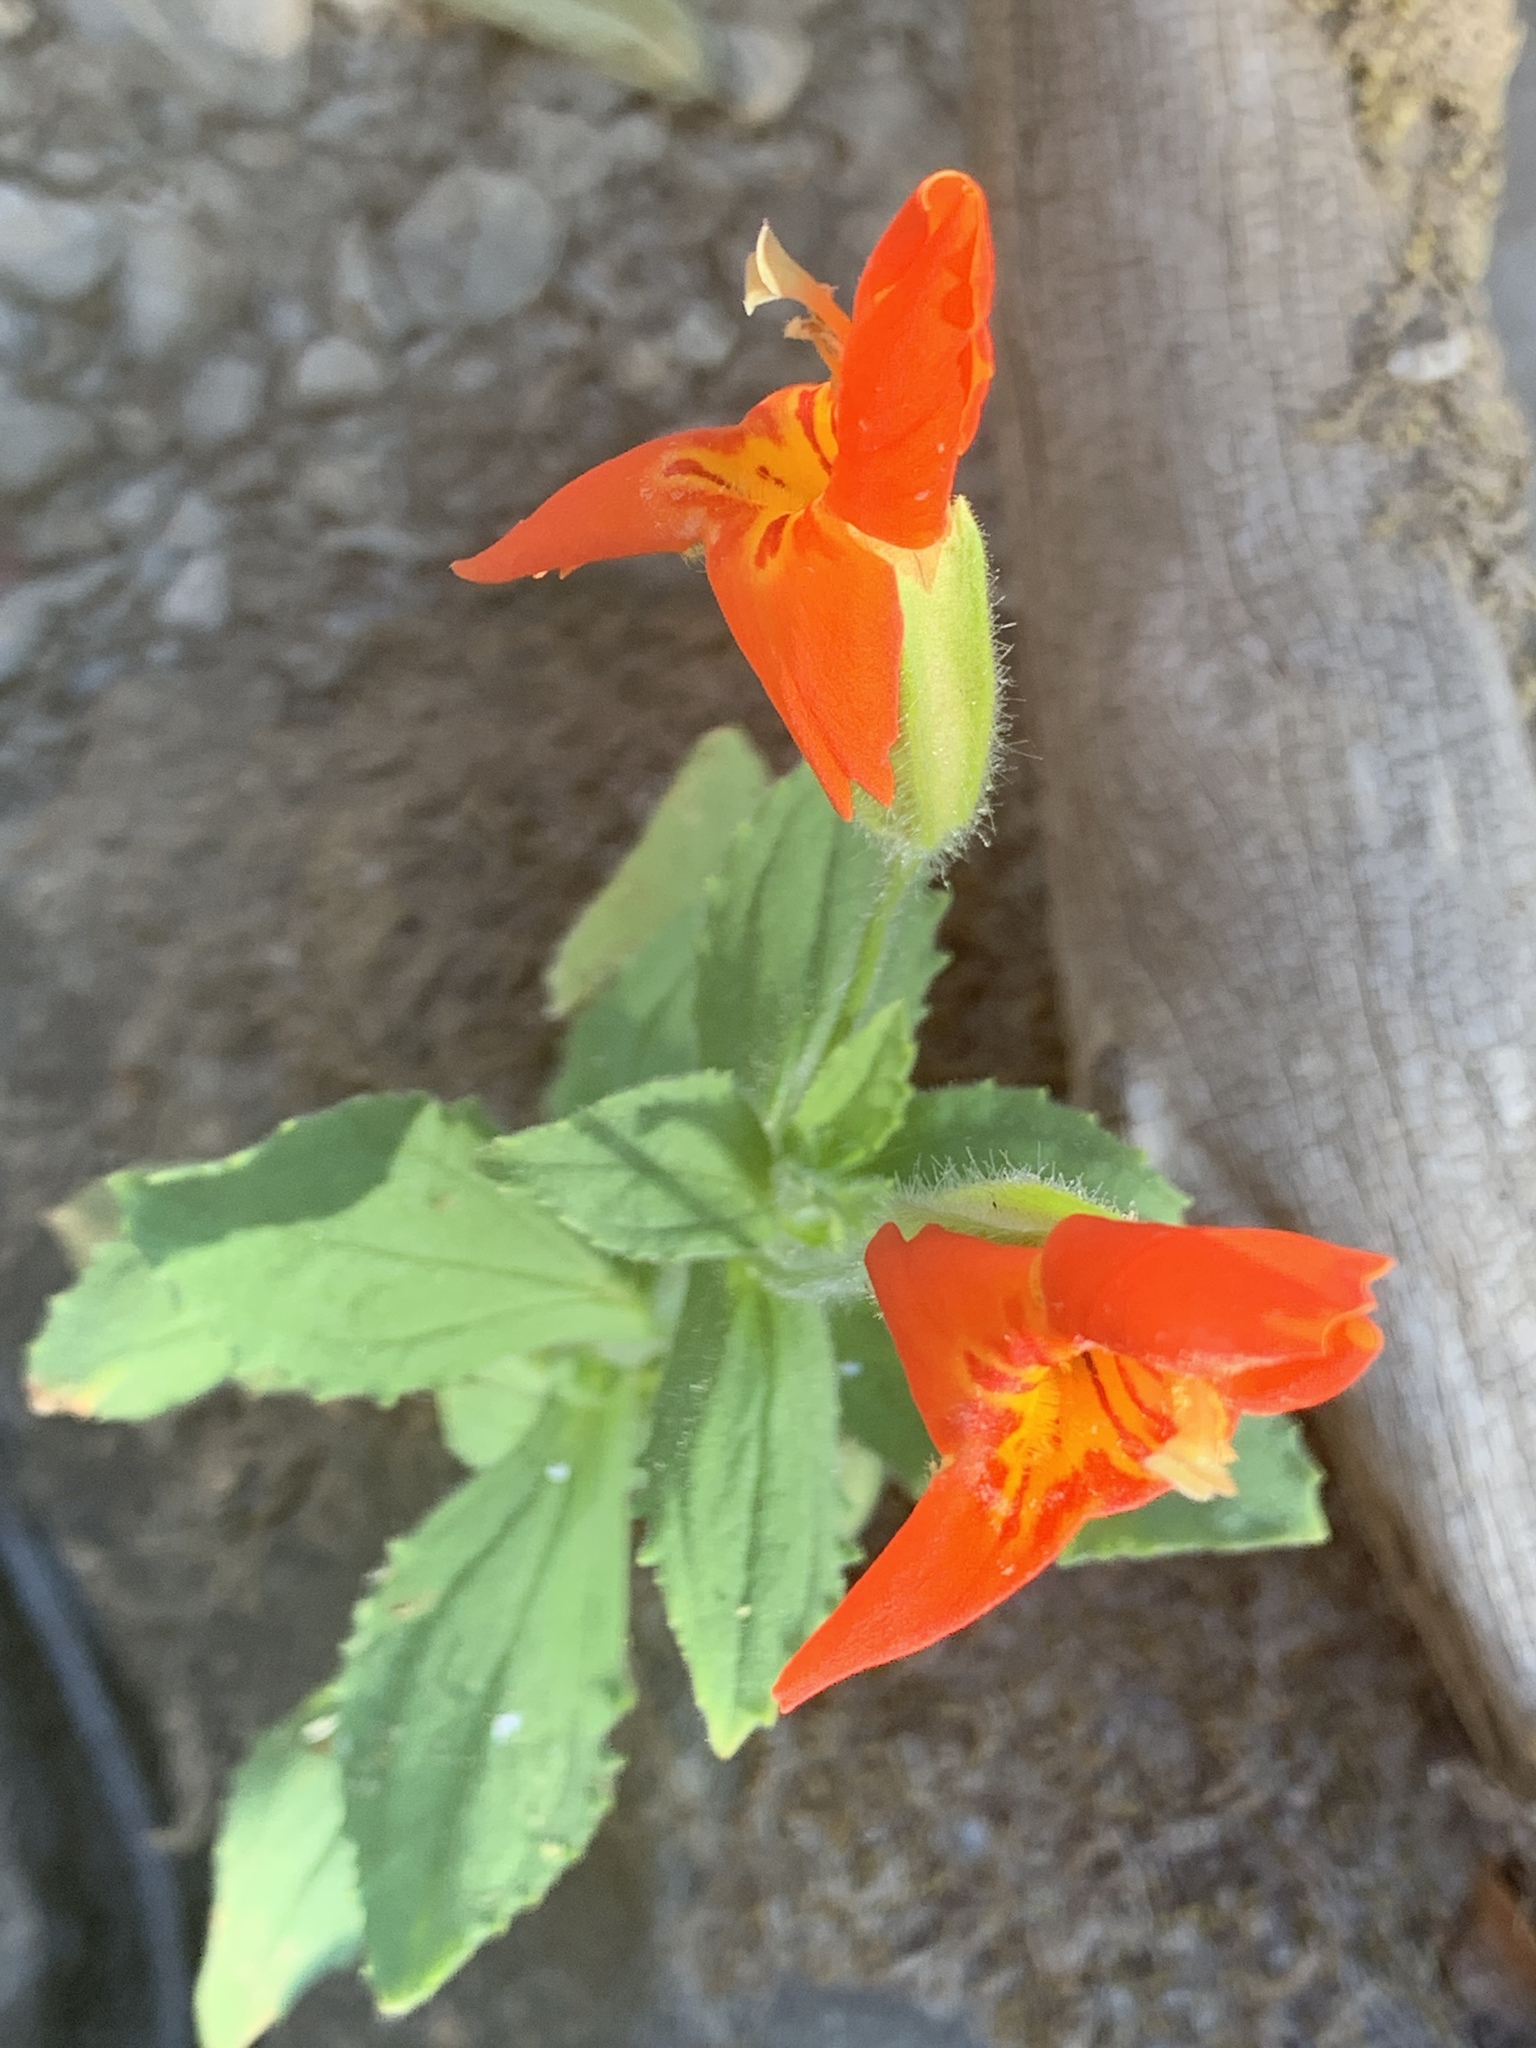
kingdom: Plantae
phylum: Tracheophyta
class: Magnoliopsida
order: Lamiales
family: Phrymaceae
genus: Erythranthe
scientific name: Erythranthe cardinalis
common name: Scarlet monkey-flower
